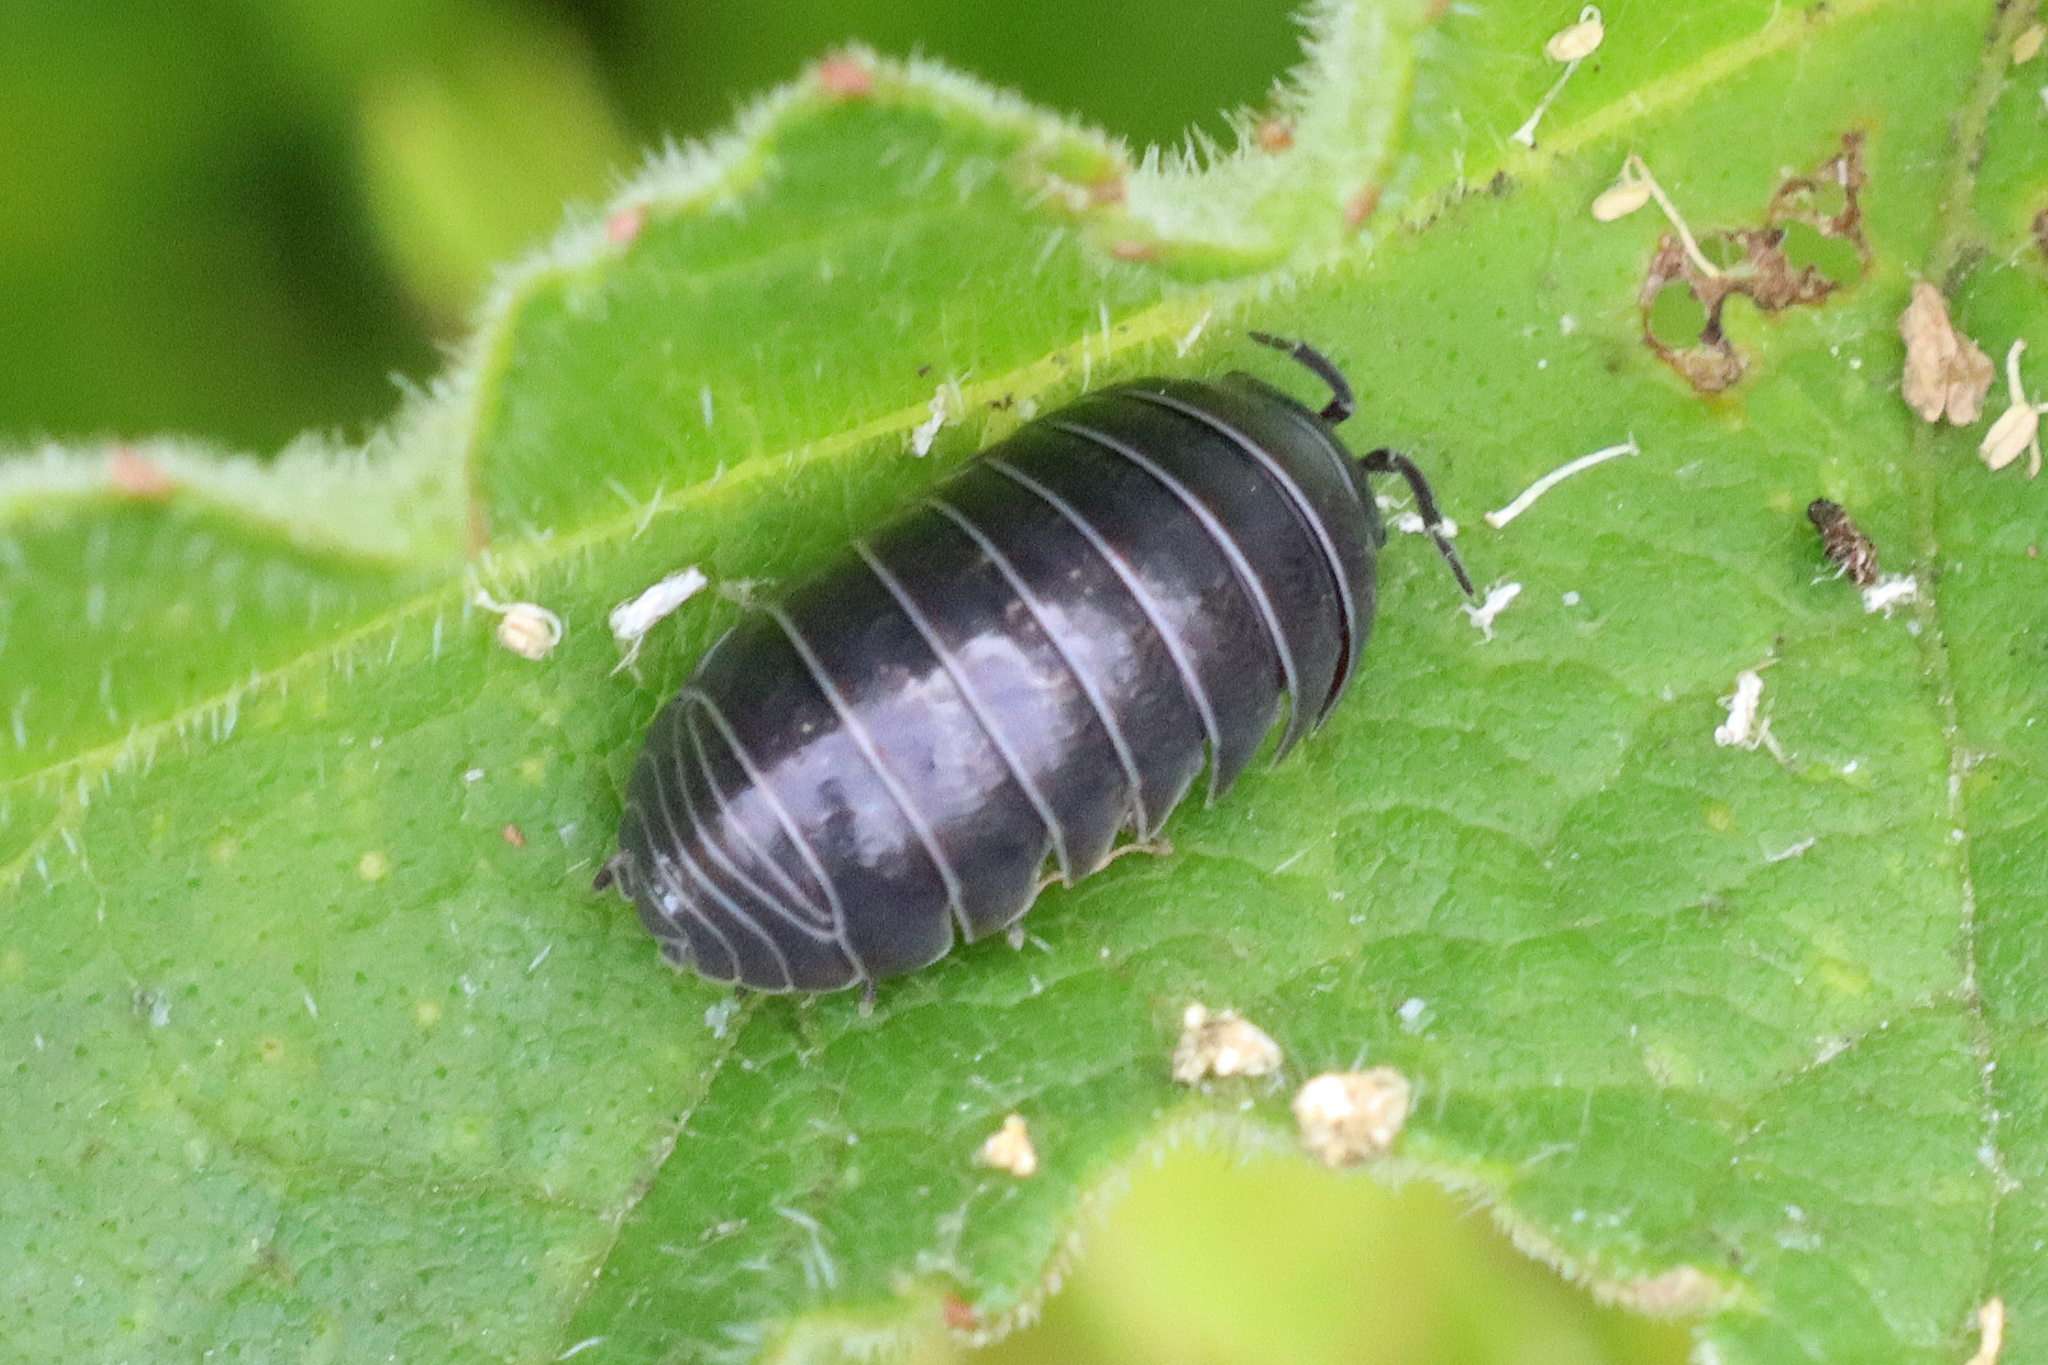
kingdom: Animalia
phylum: Arthropoda
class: Malacostraca
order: Isopoda
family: Armadillidiidae
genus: Armadillidium
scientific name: Armadillidium vulgare
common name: Common pill woodlouse
